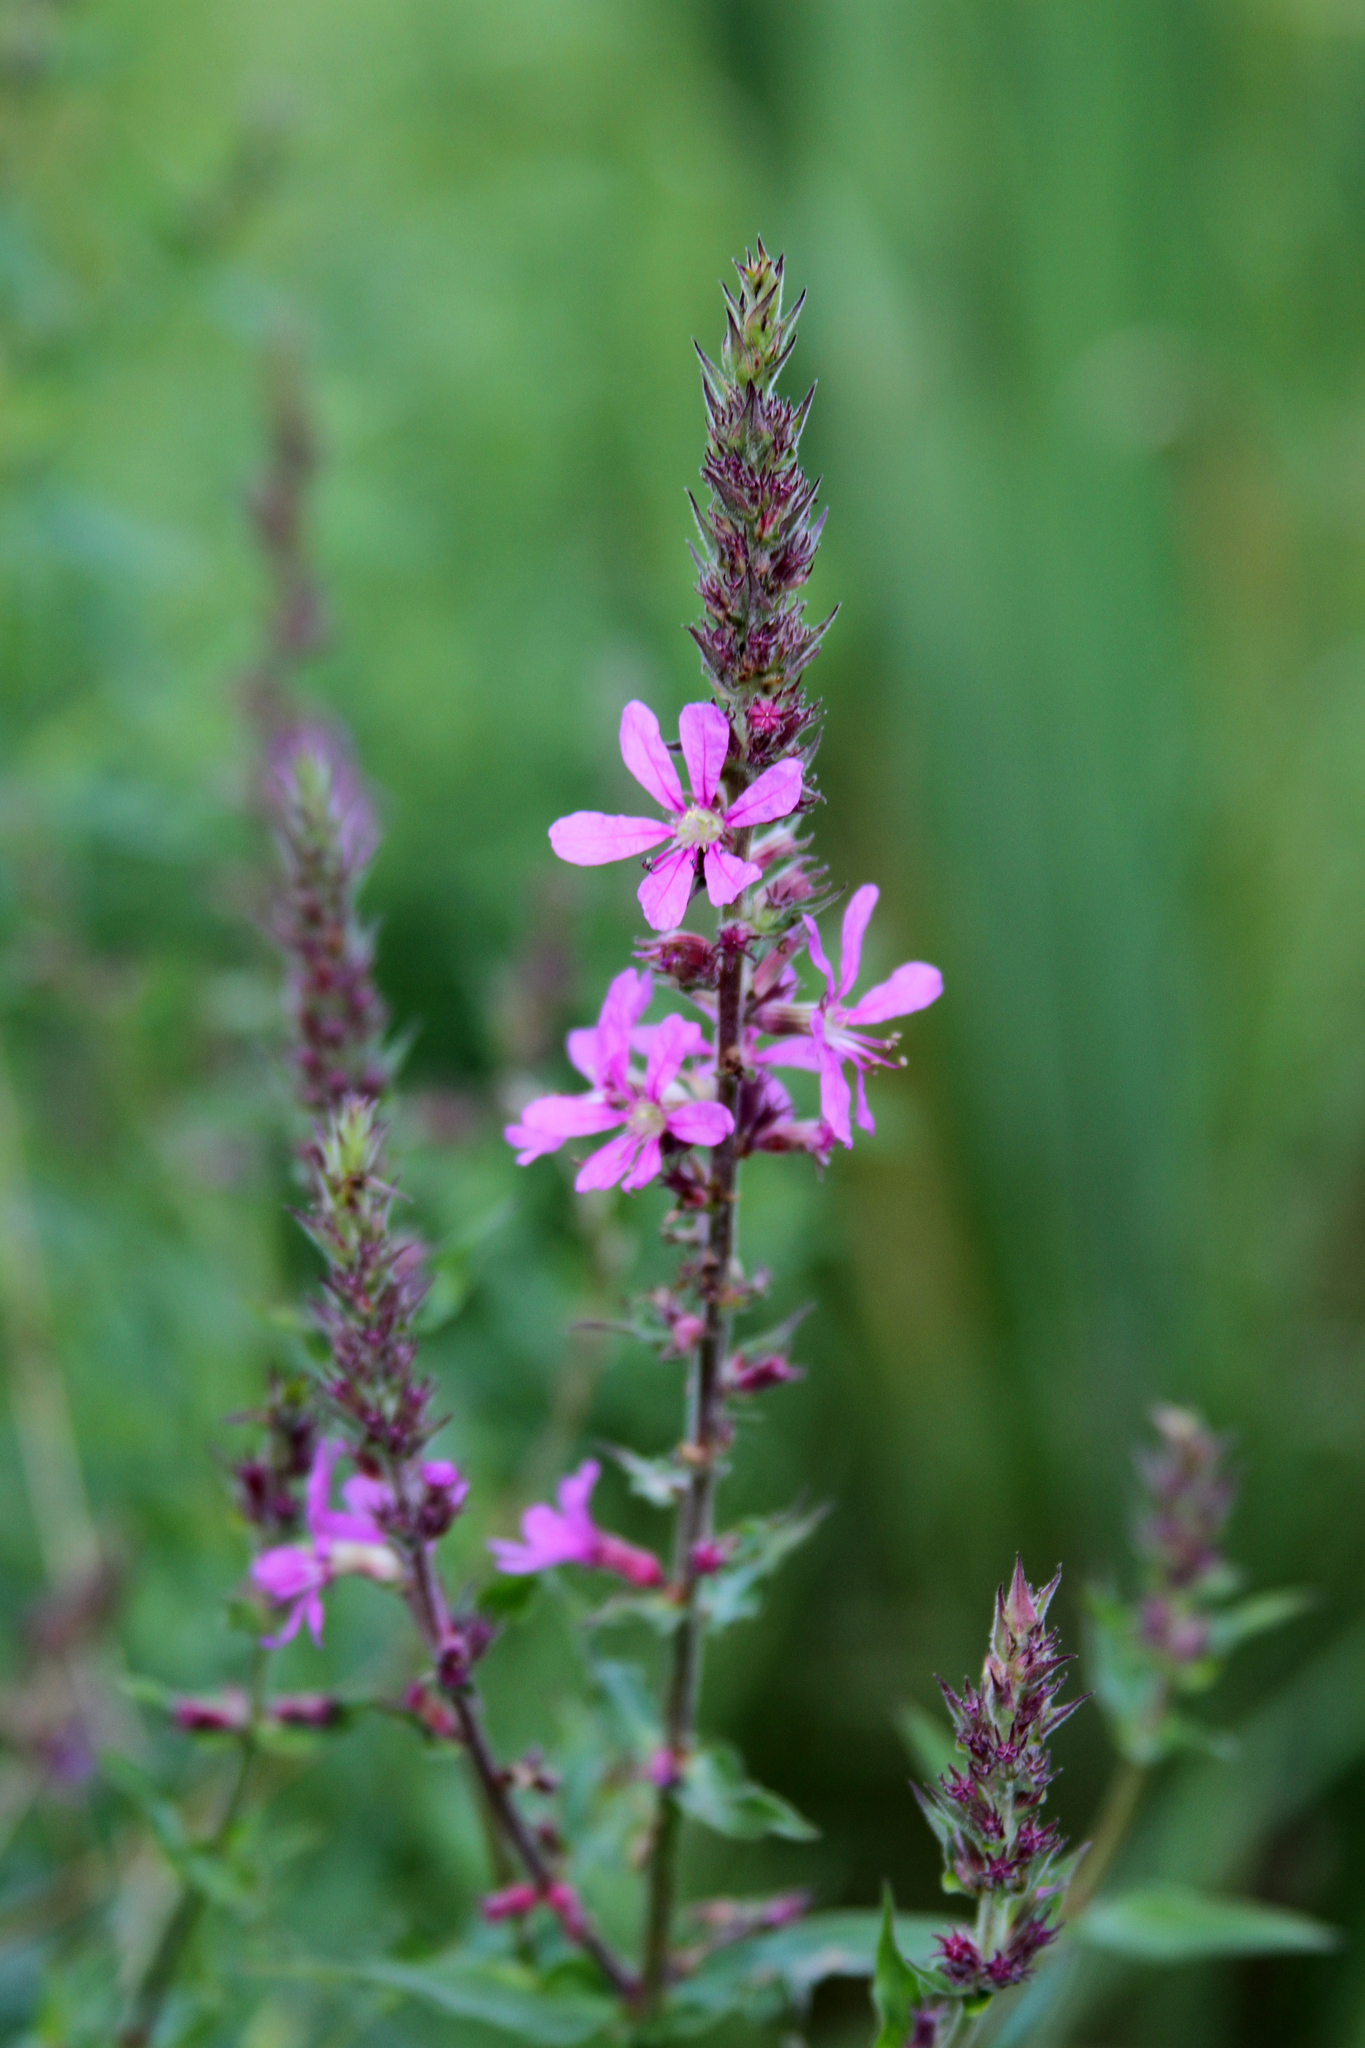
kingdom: Plantae
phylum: Tracheophyta
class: Magnoliopsida
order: Myrtales
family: Lythraceae
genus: Lythrum
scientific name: Lythrum salicaria
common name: Purple loosestrife
